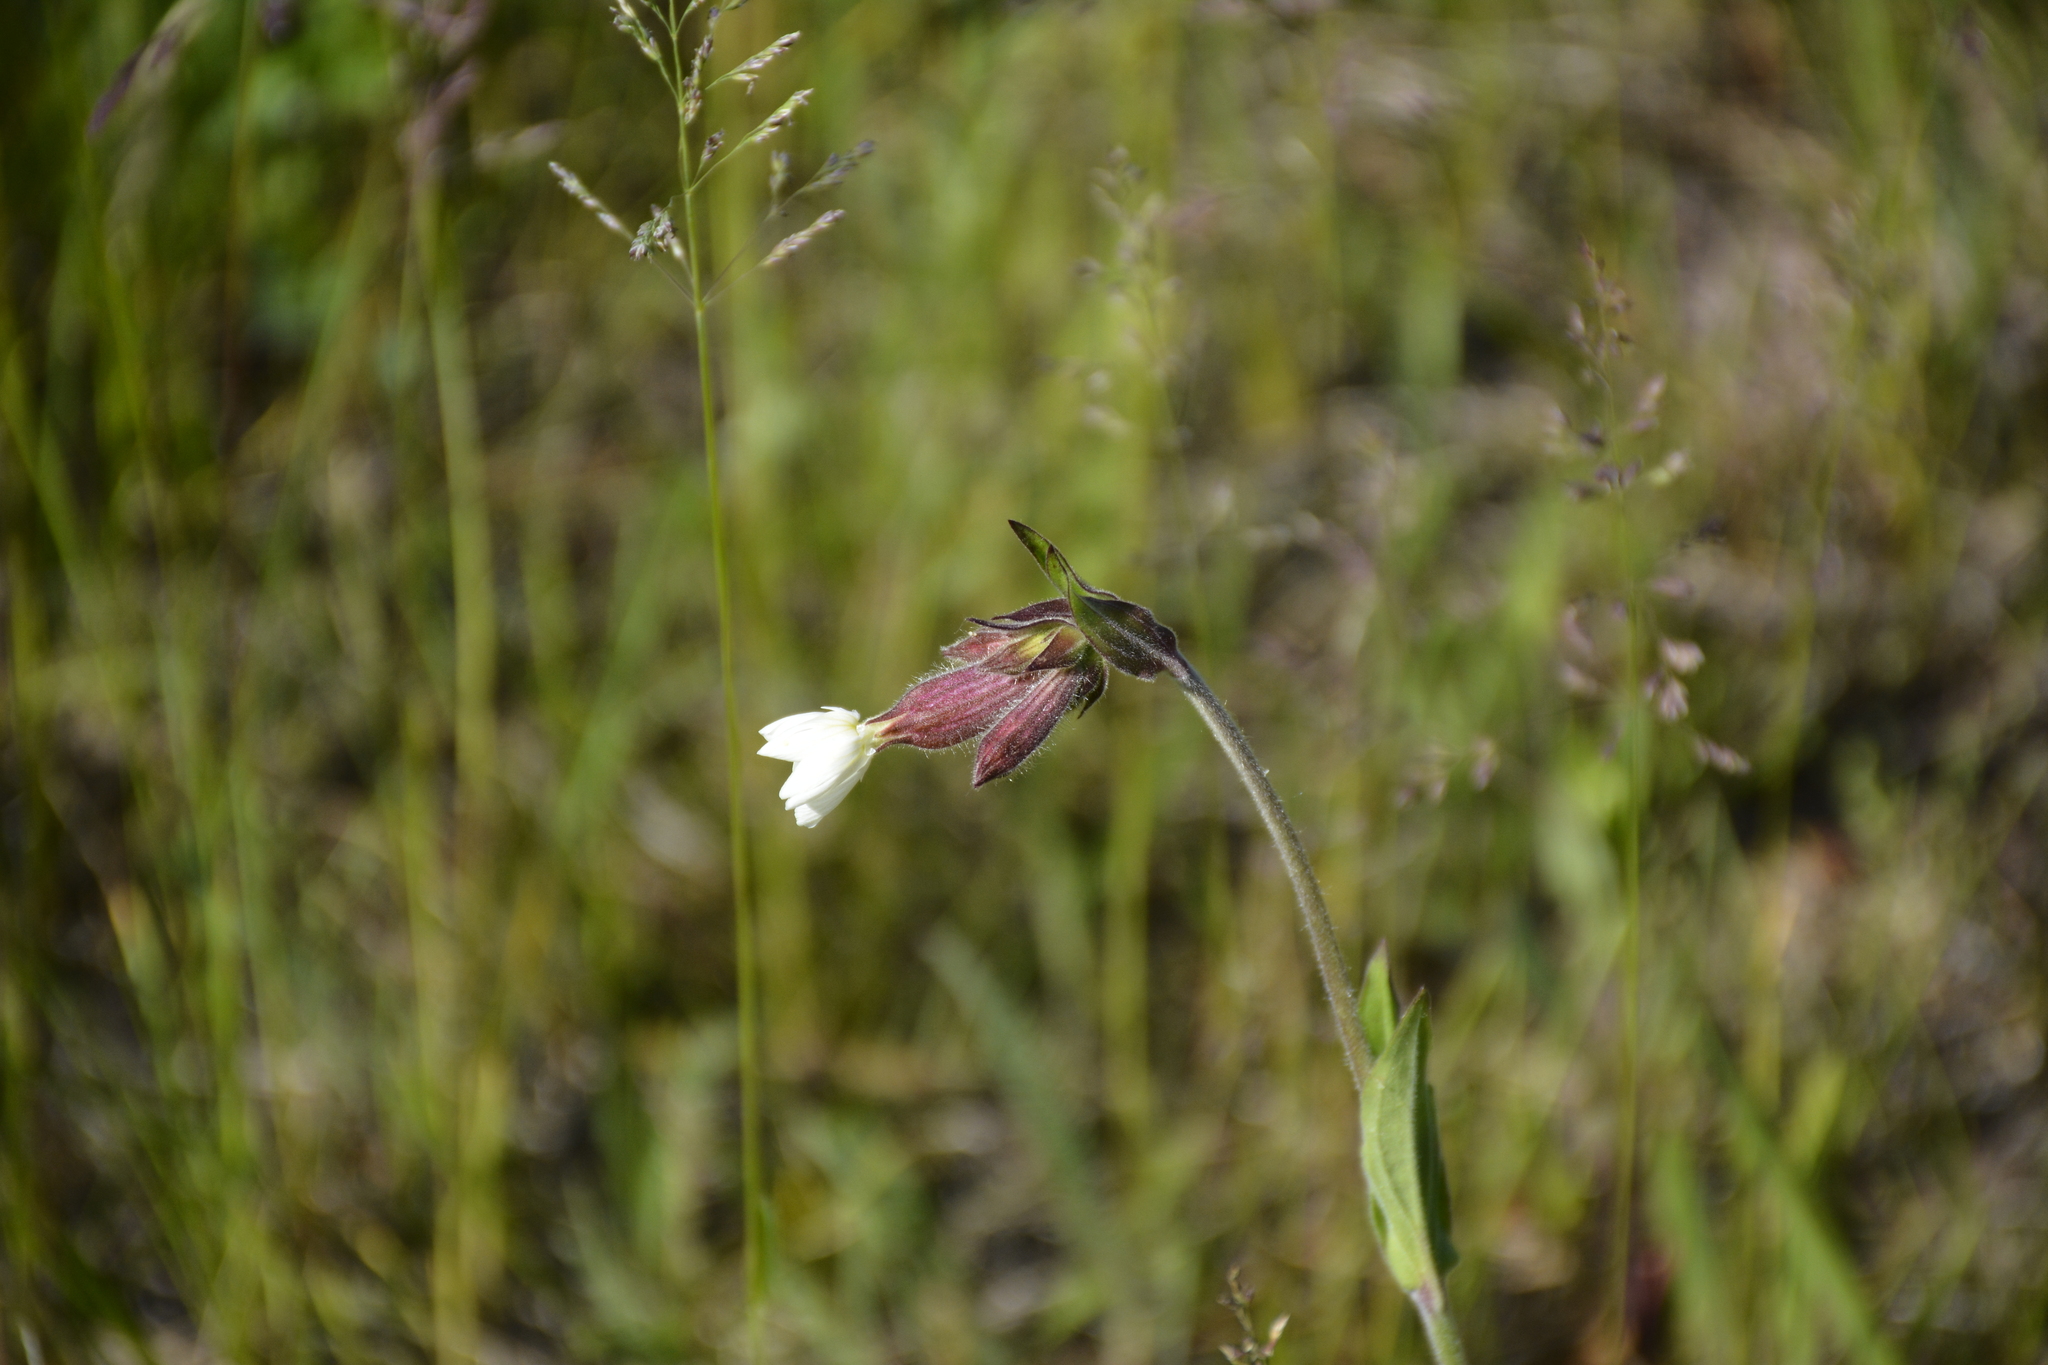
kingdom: Plantae
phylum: Tracheophyta
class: Magnoliopsida
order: Caryophyllales
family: Caryophyllaceae
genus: Silene
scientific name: Silene latifolia
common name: White campion
